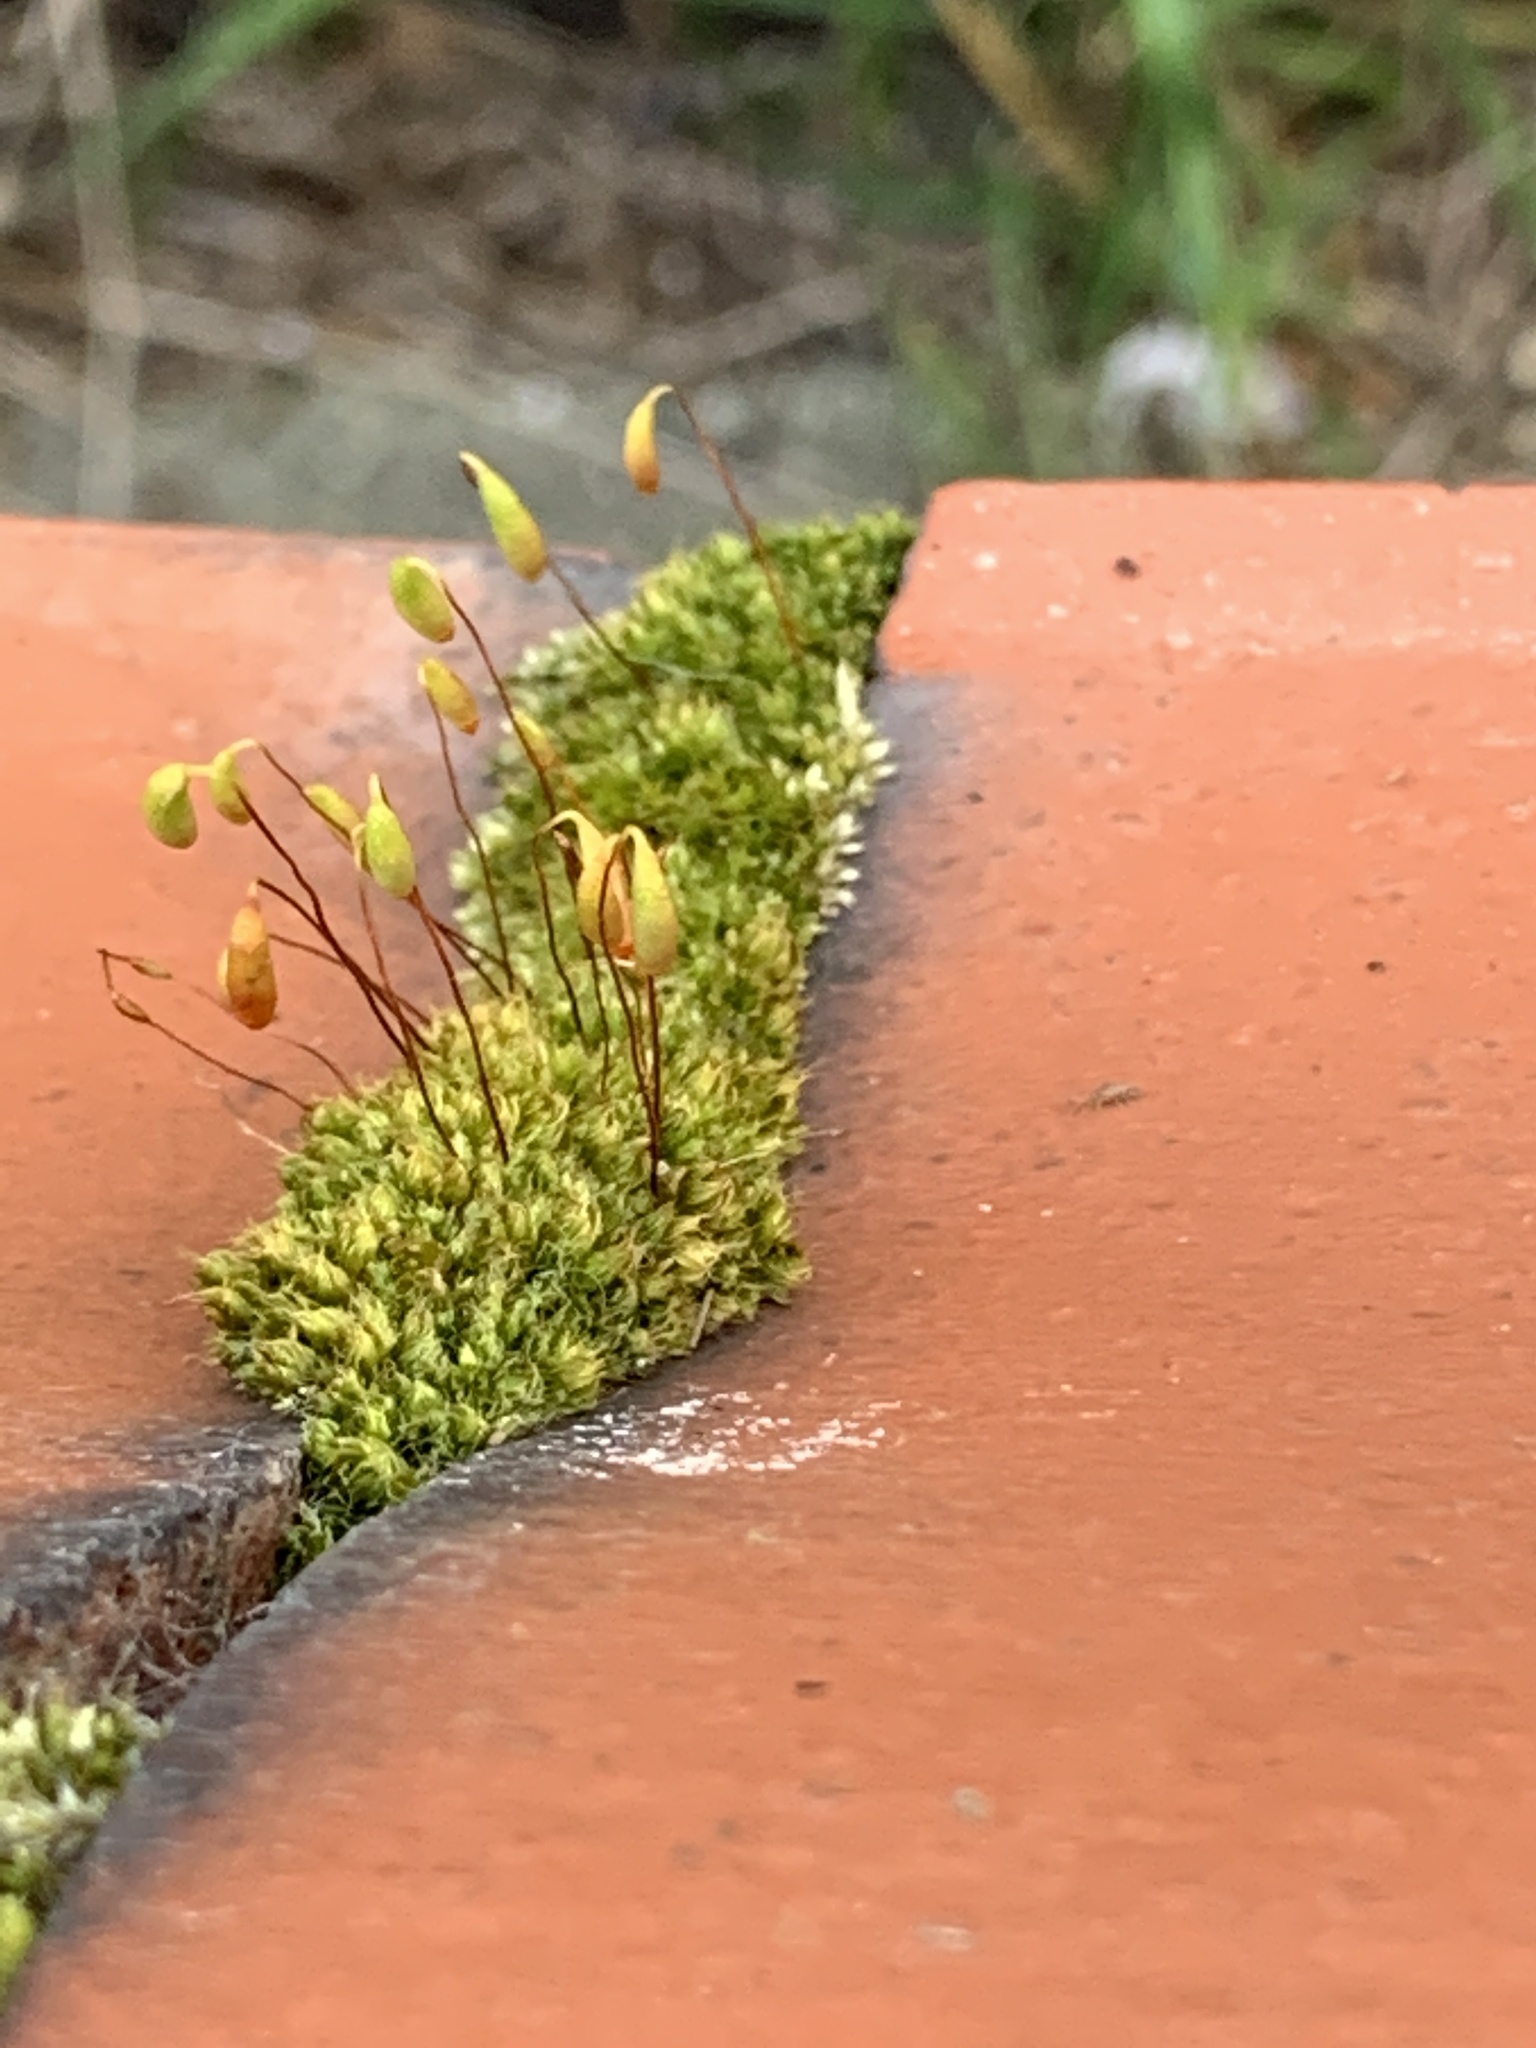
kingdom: Plantae
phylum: Bryophyta
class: Bryopsida
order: Bryales
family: Bryaceae
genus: Rosulabryum
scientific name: Rosulabryum capillare
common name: Capillary thread-moss
